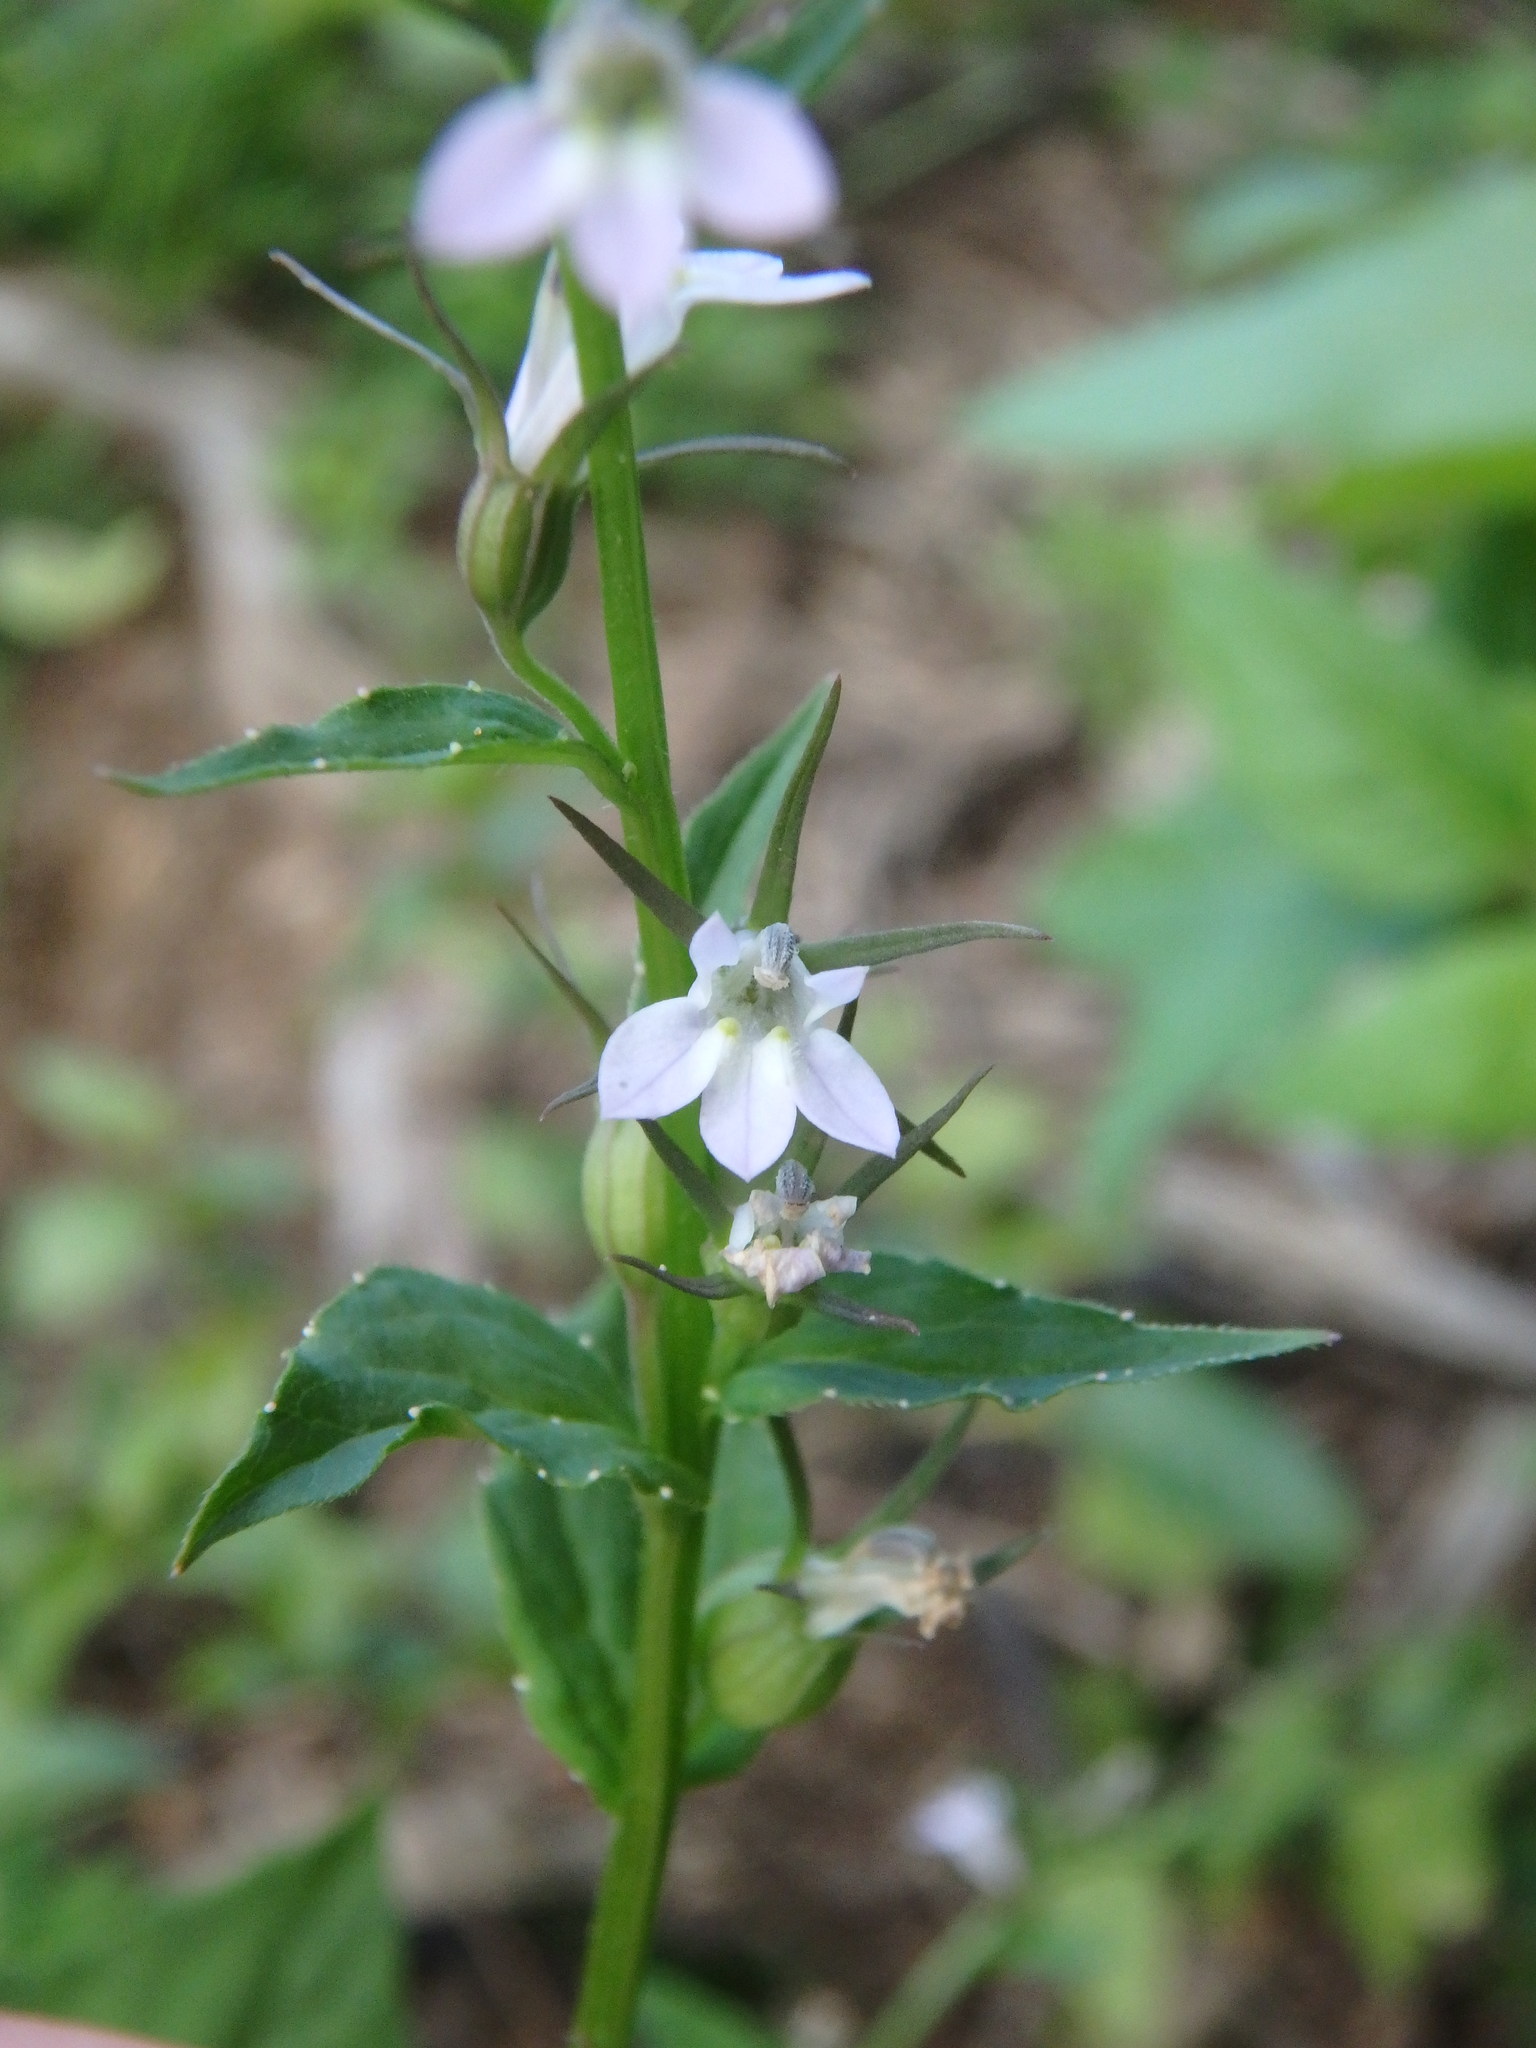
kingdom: Plantae
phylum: Tracheophyta
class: Magnoliopsida
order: Asterales
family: Campanulaceae
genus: Lobelia
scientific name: Lobelia inflata
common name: Indian tobacco
